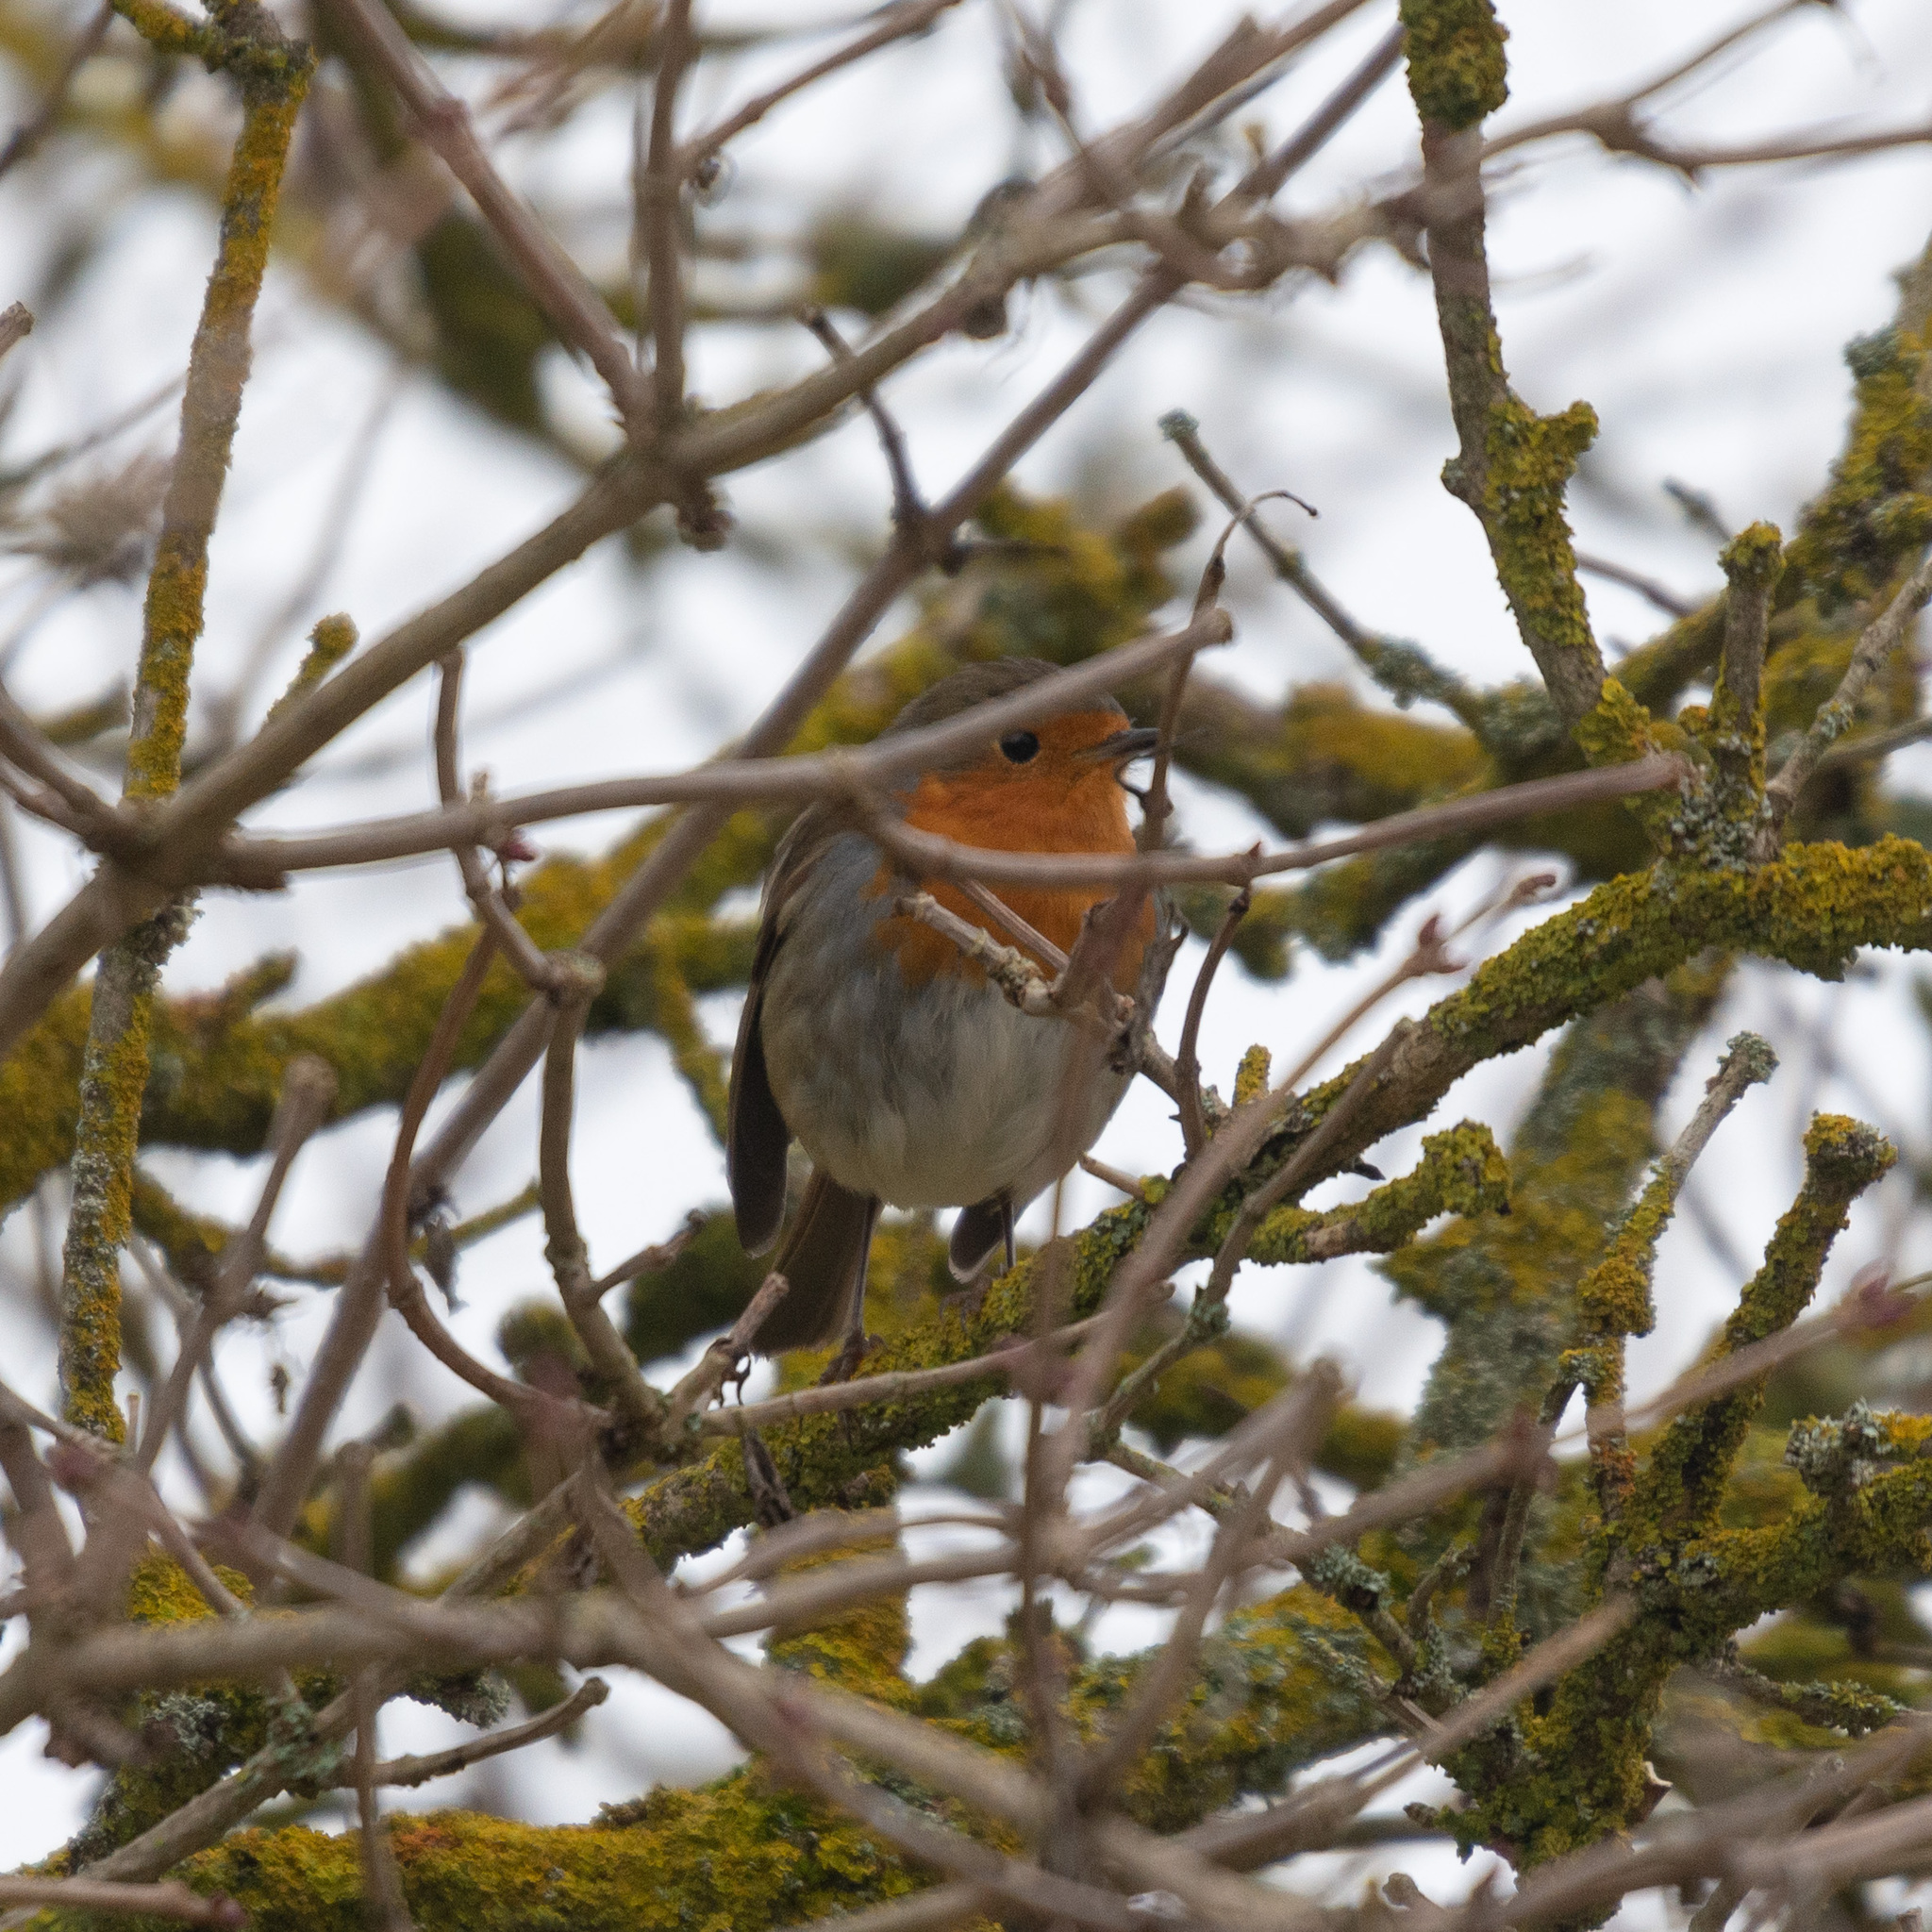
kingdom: Animalia
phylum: Chordata
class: Aves
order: Passeriformes
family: Muscicapidae
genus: Erithacus
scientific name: Erithacus rubecula
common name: European robin
